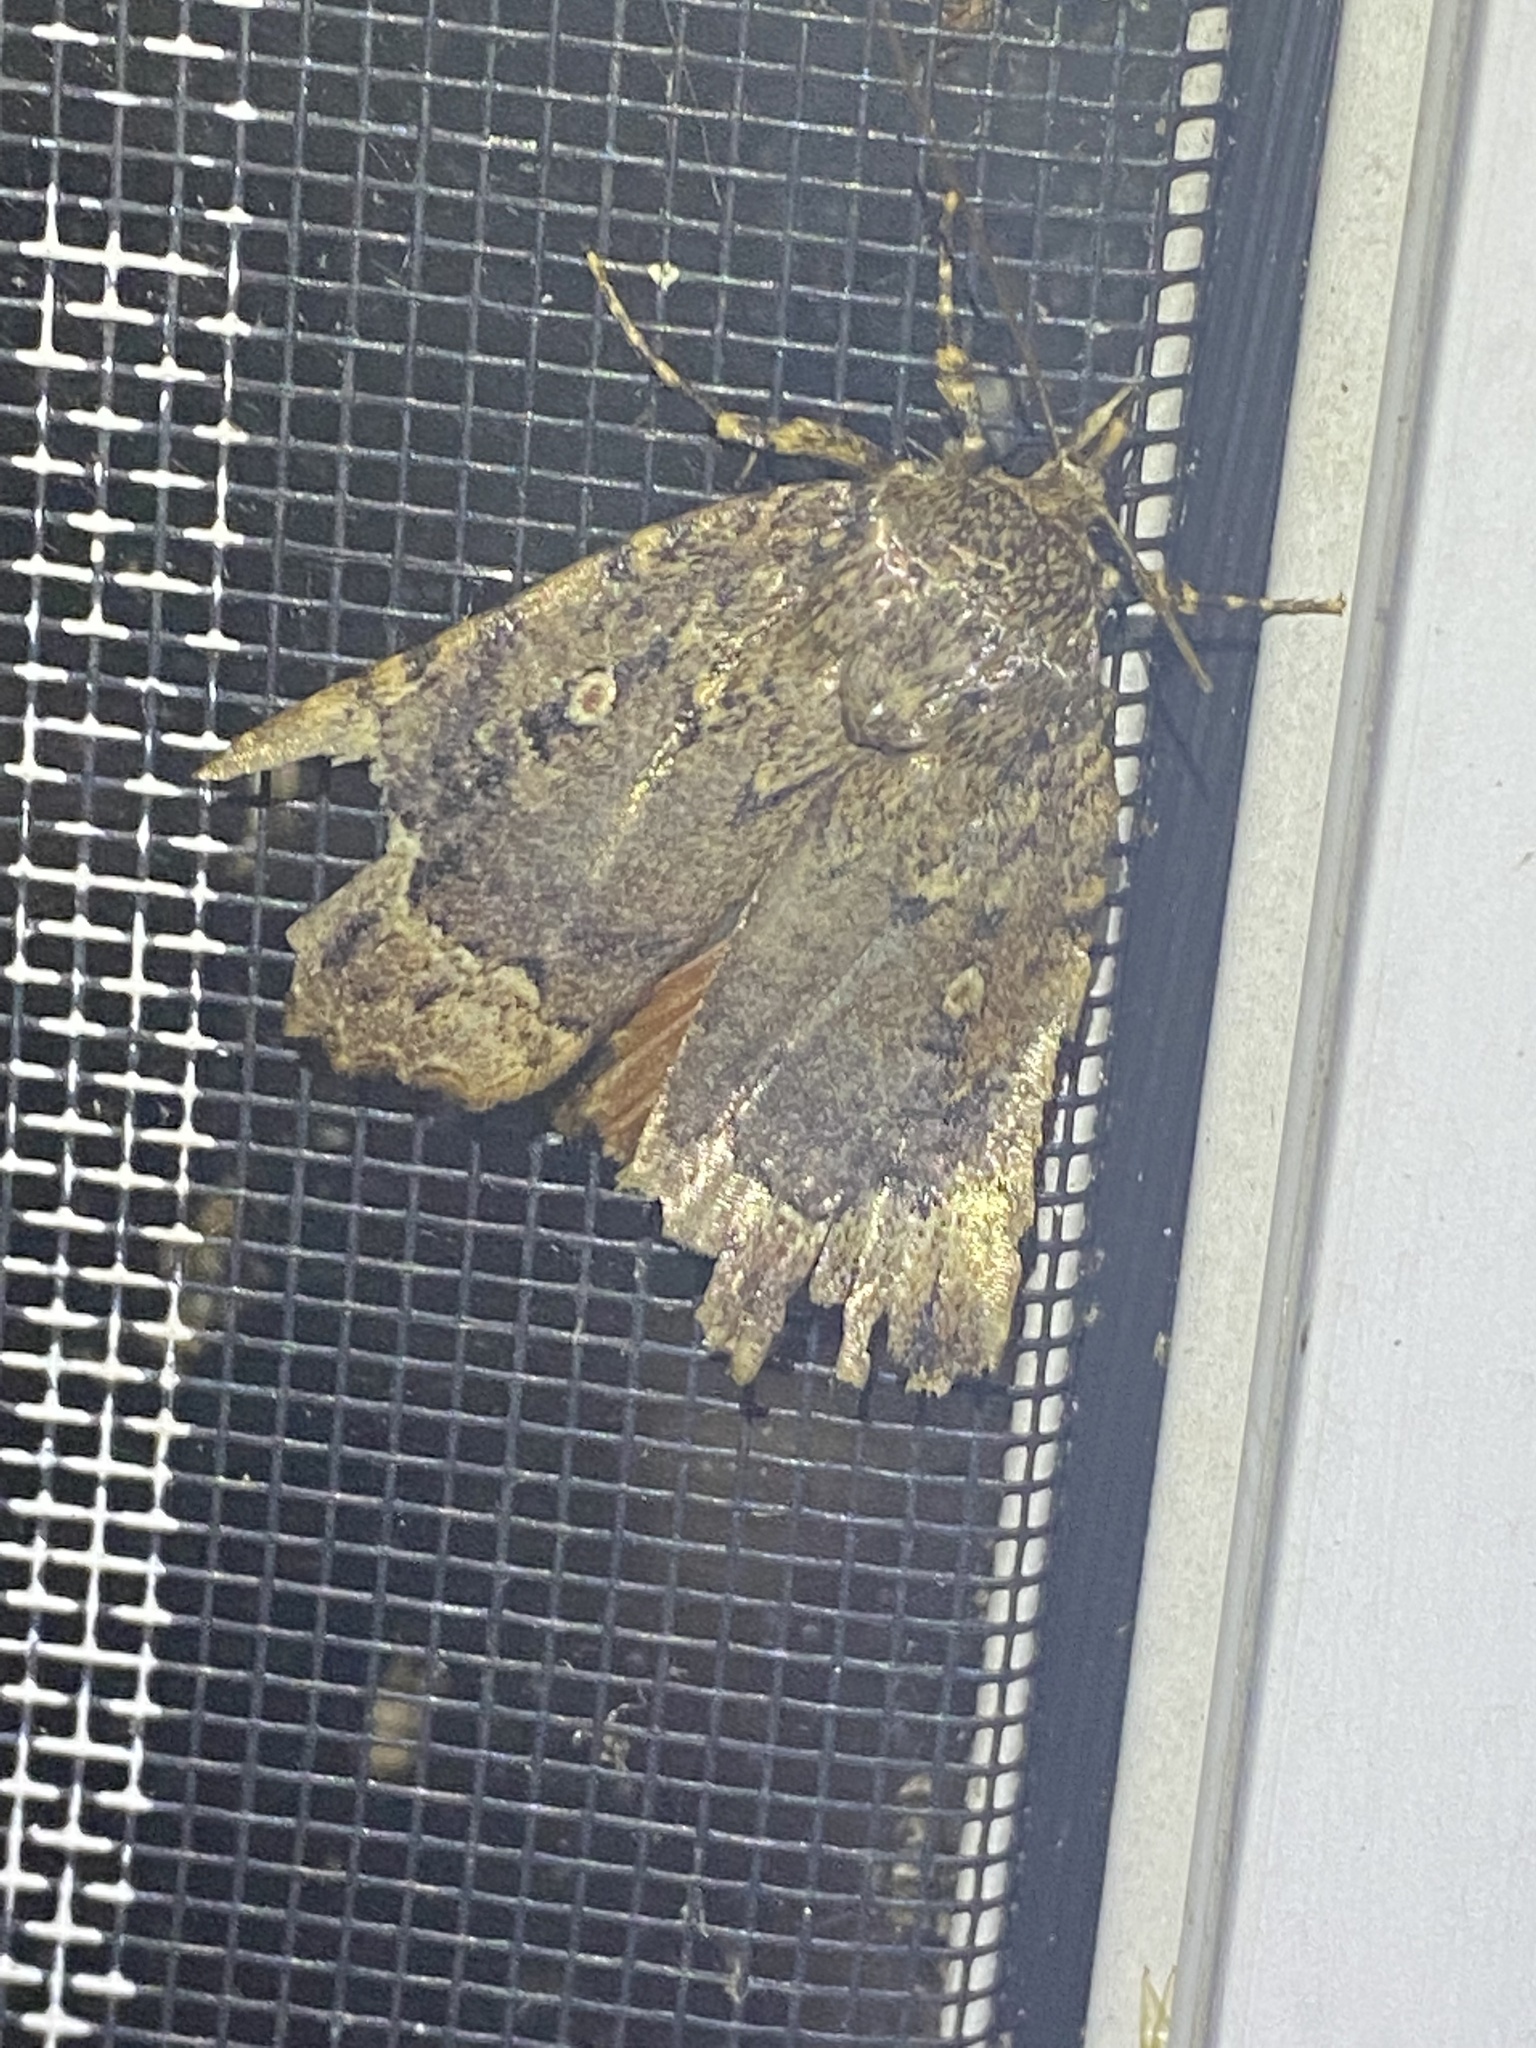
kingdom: Animalia
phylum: Arthropoda
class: Insecta
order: Lepidoptera
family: Noctuidae
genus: Amphipyra
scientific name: Amphipyra pyramidoides
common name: American copper underwing
